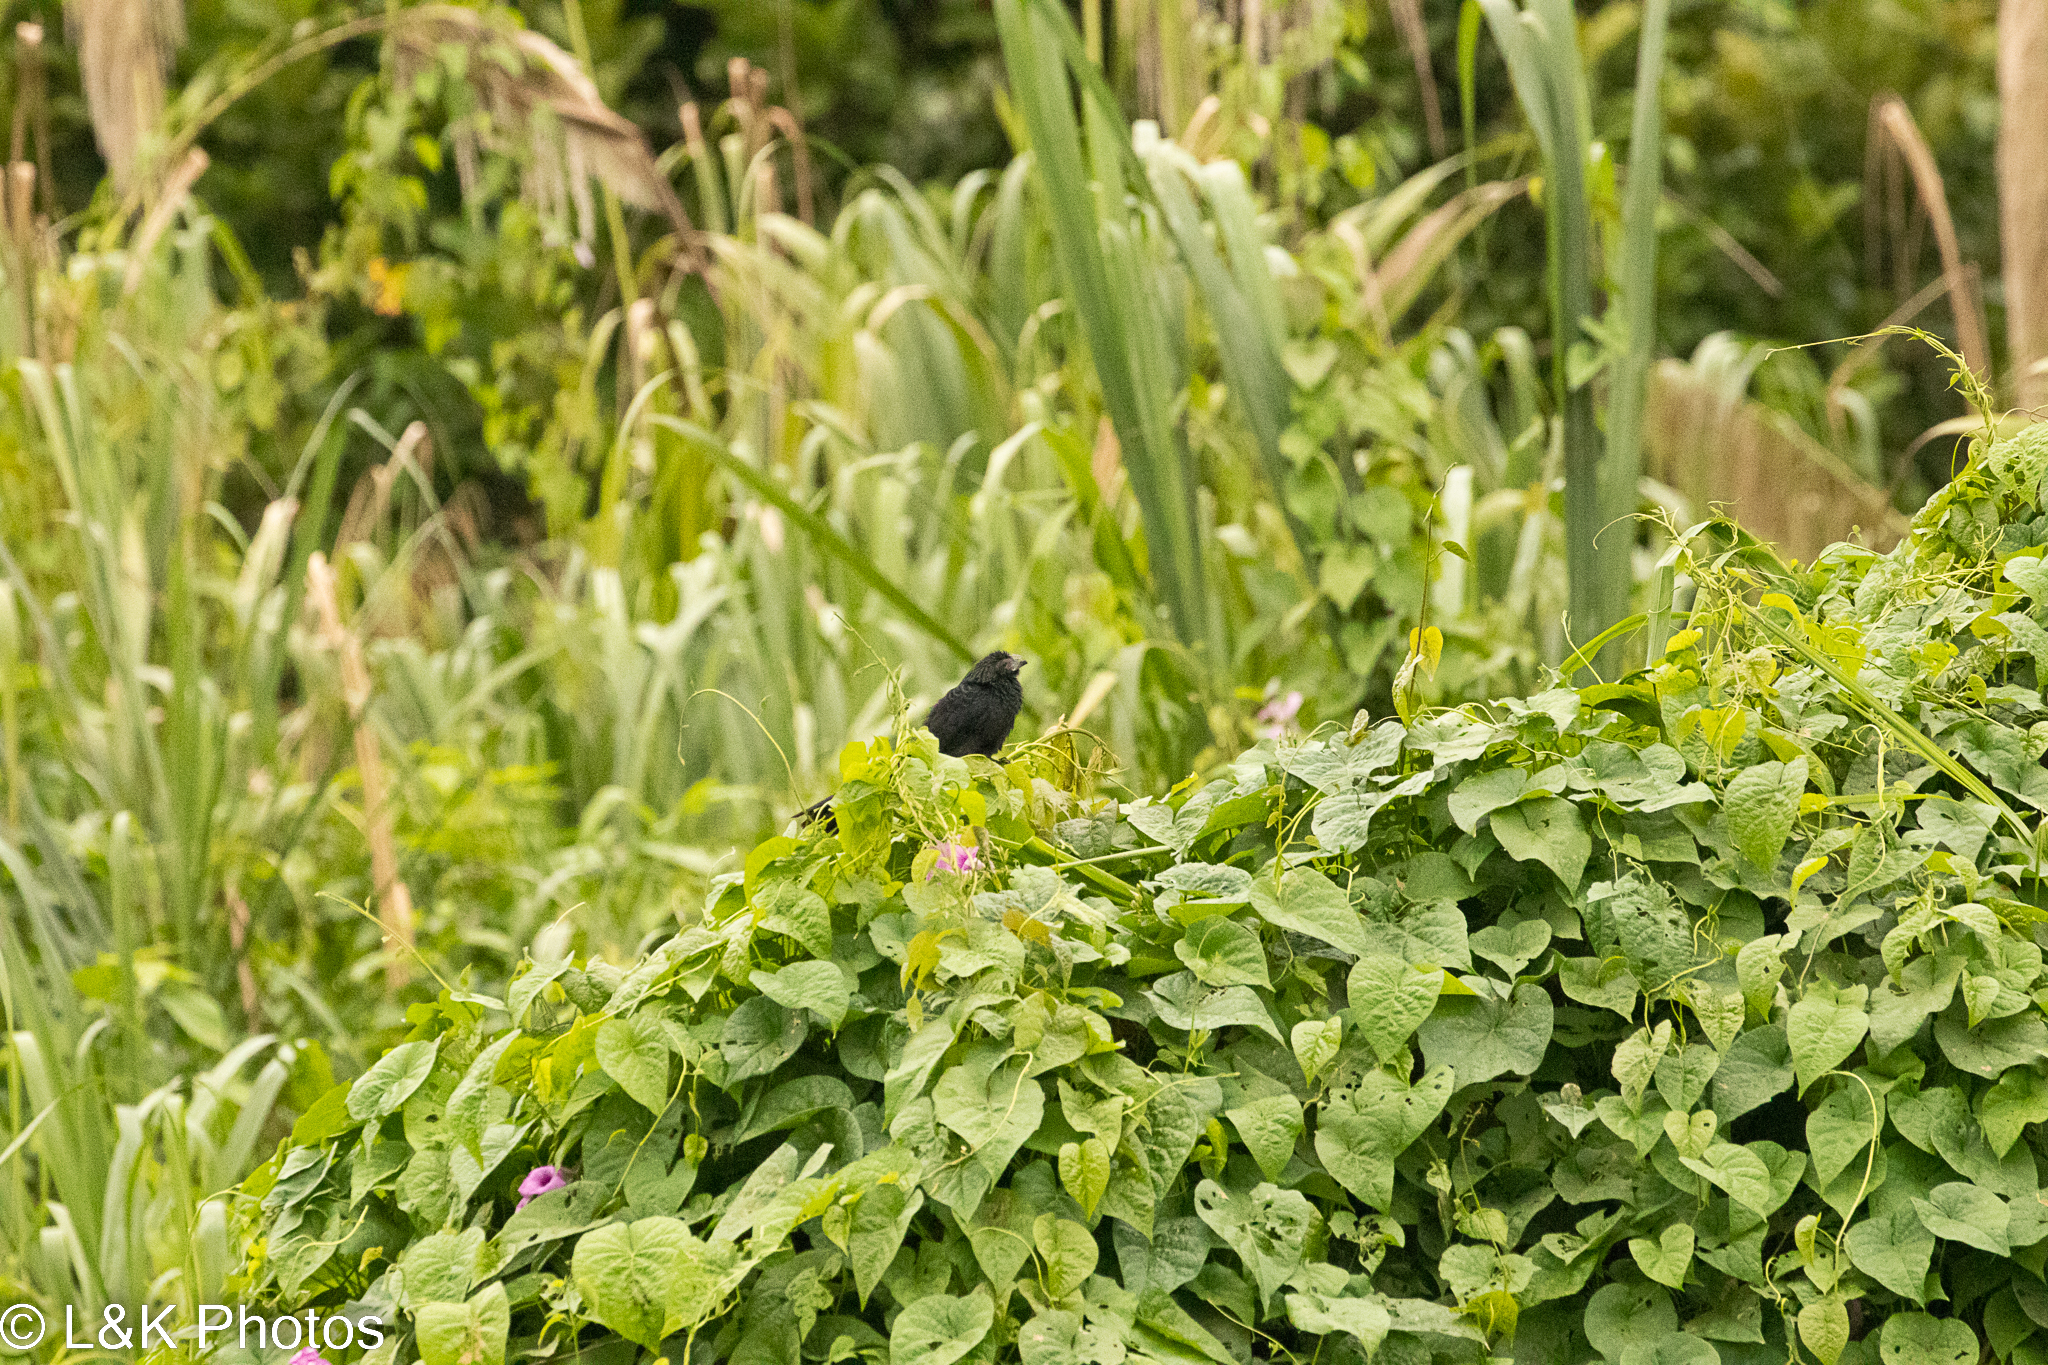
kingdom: Animalia
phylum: Chordata
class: Aves
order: Cuculiformes
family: Cuculidae
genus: Crotophaga
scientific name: Crotophaga sulcirostris
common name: Groove-billed ani
